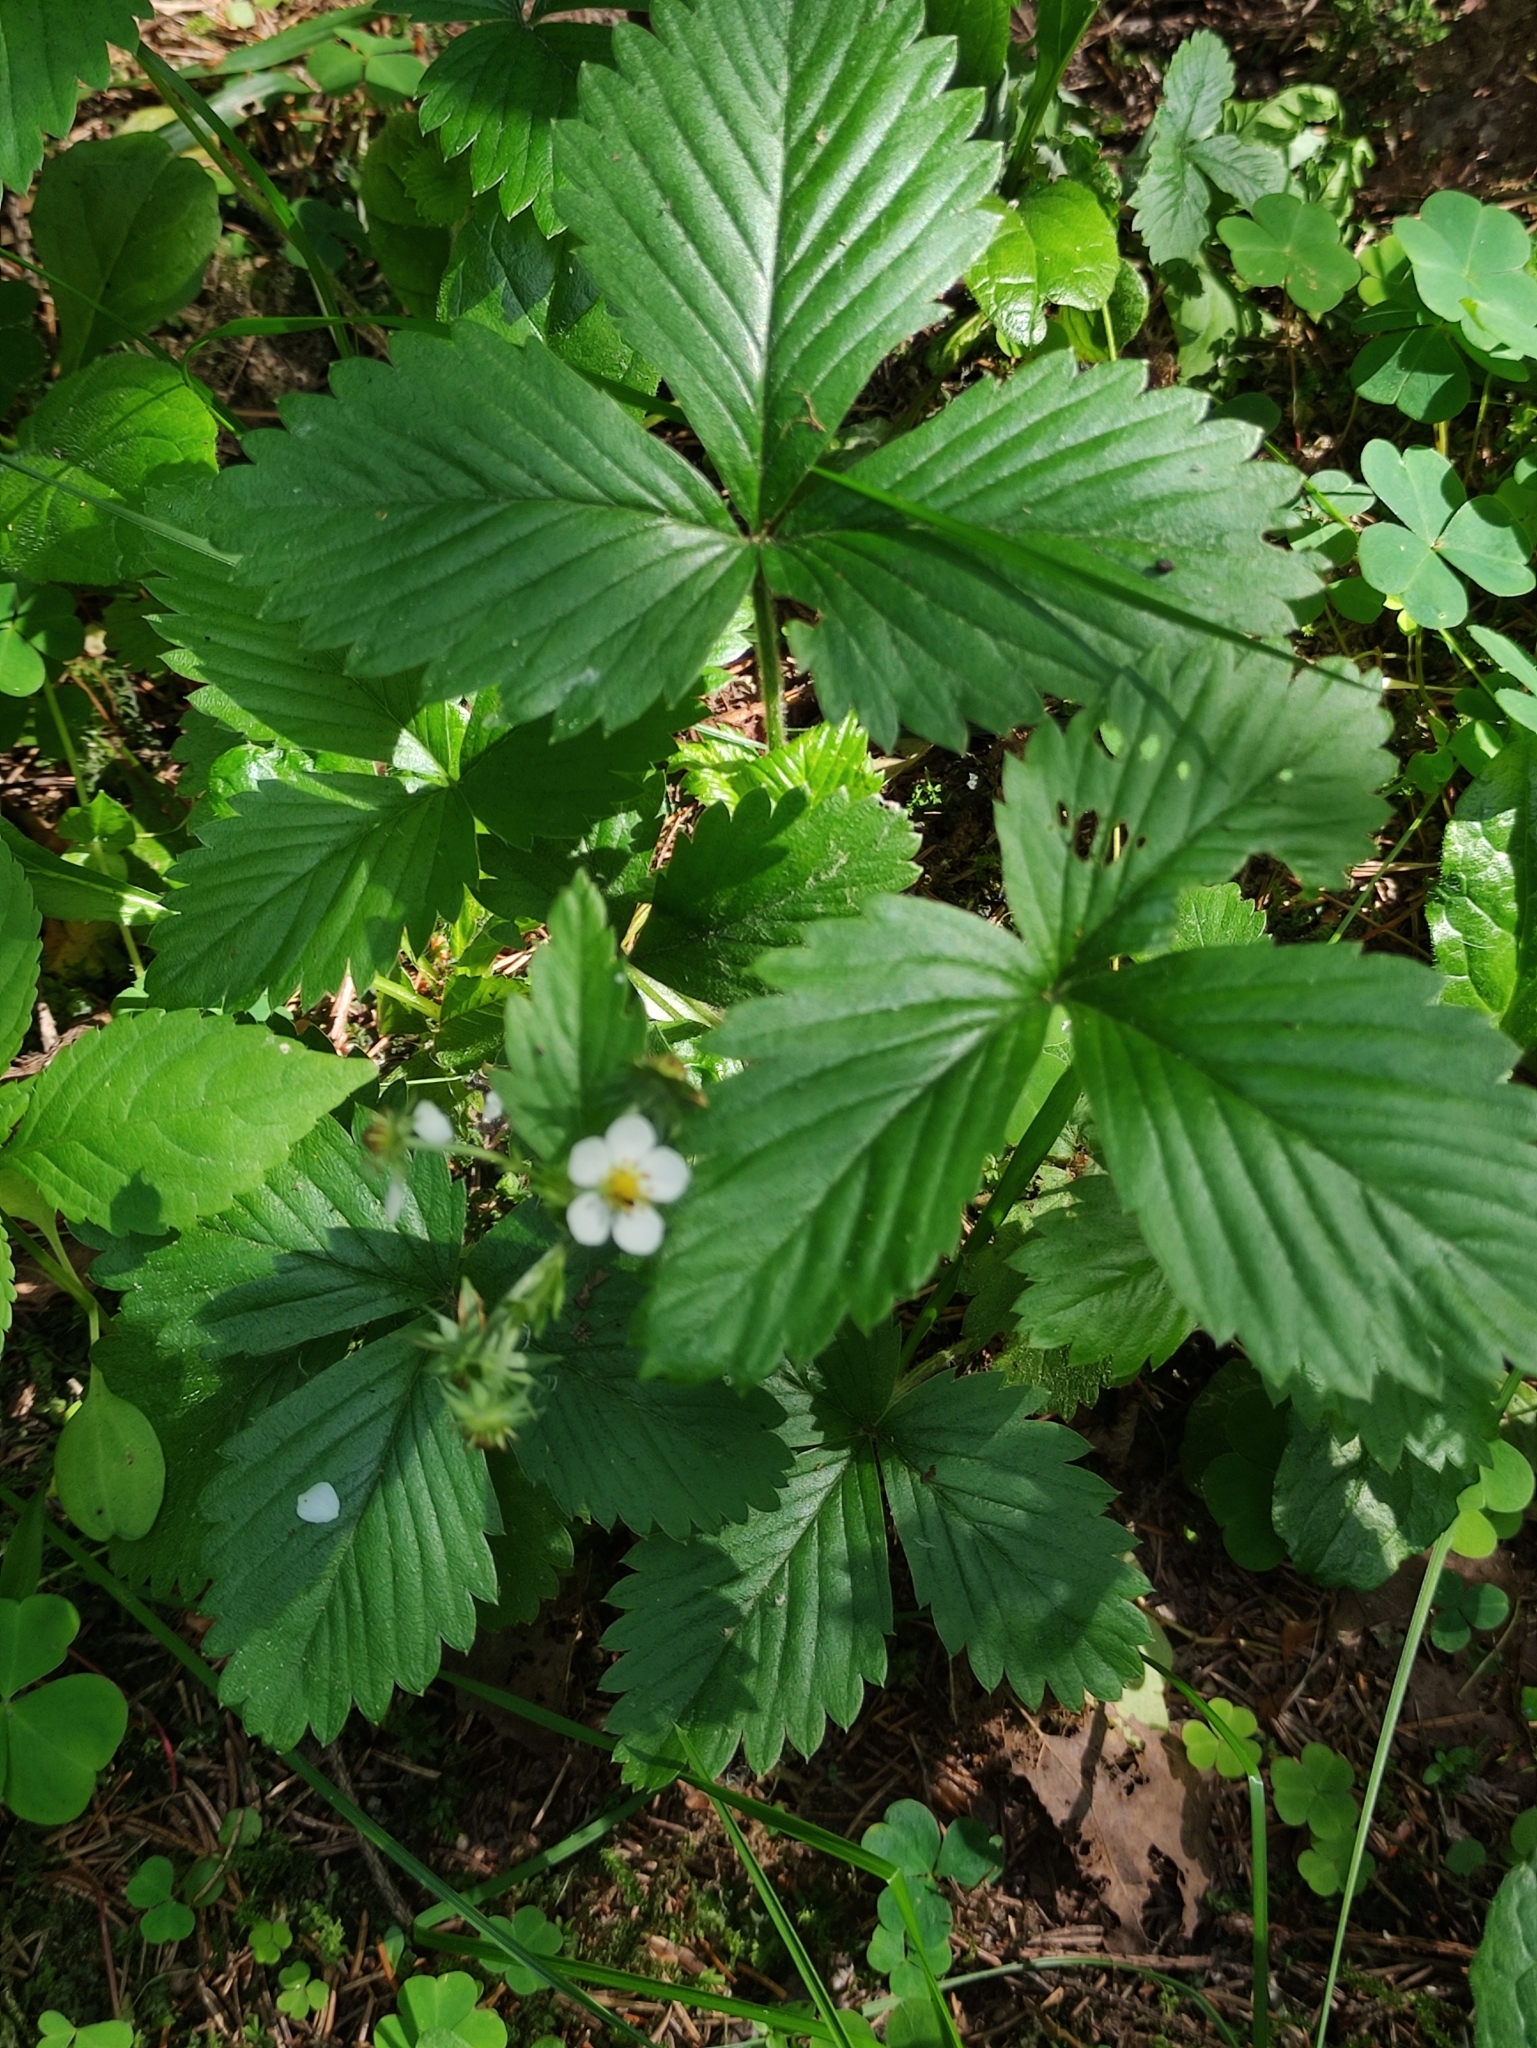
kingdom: Plantae
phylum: Tracheophyta
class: Magnoliopsida
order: Rosales
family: Rosaceae
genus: Fragaria
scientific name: Fragaria vesca
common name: Wild strawberry
